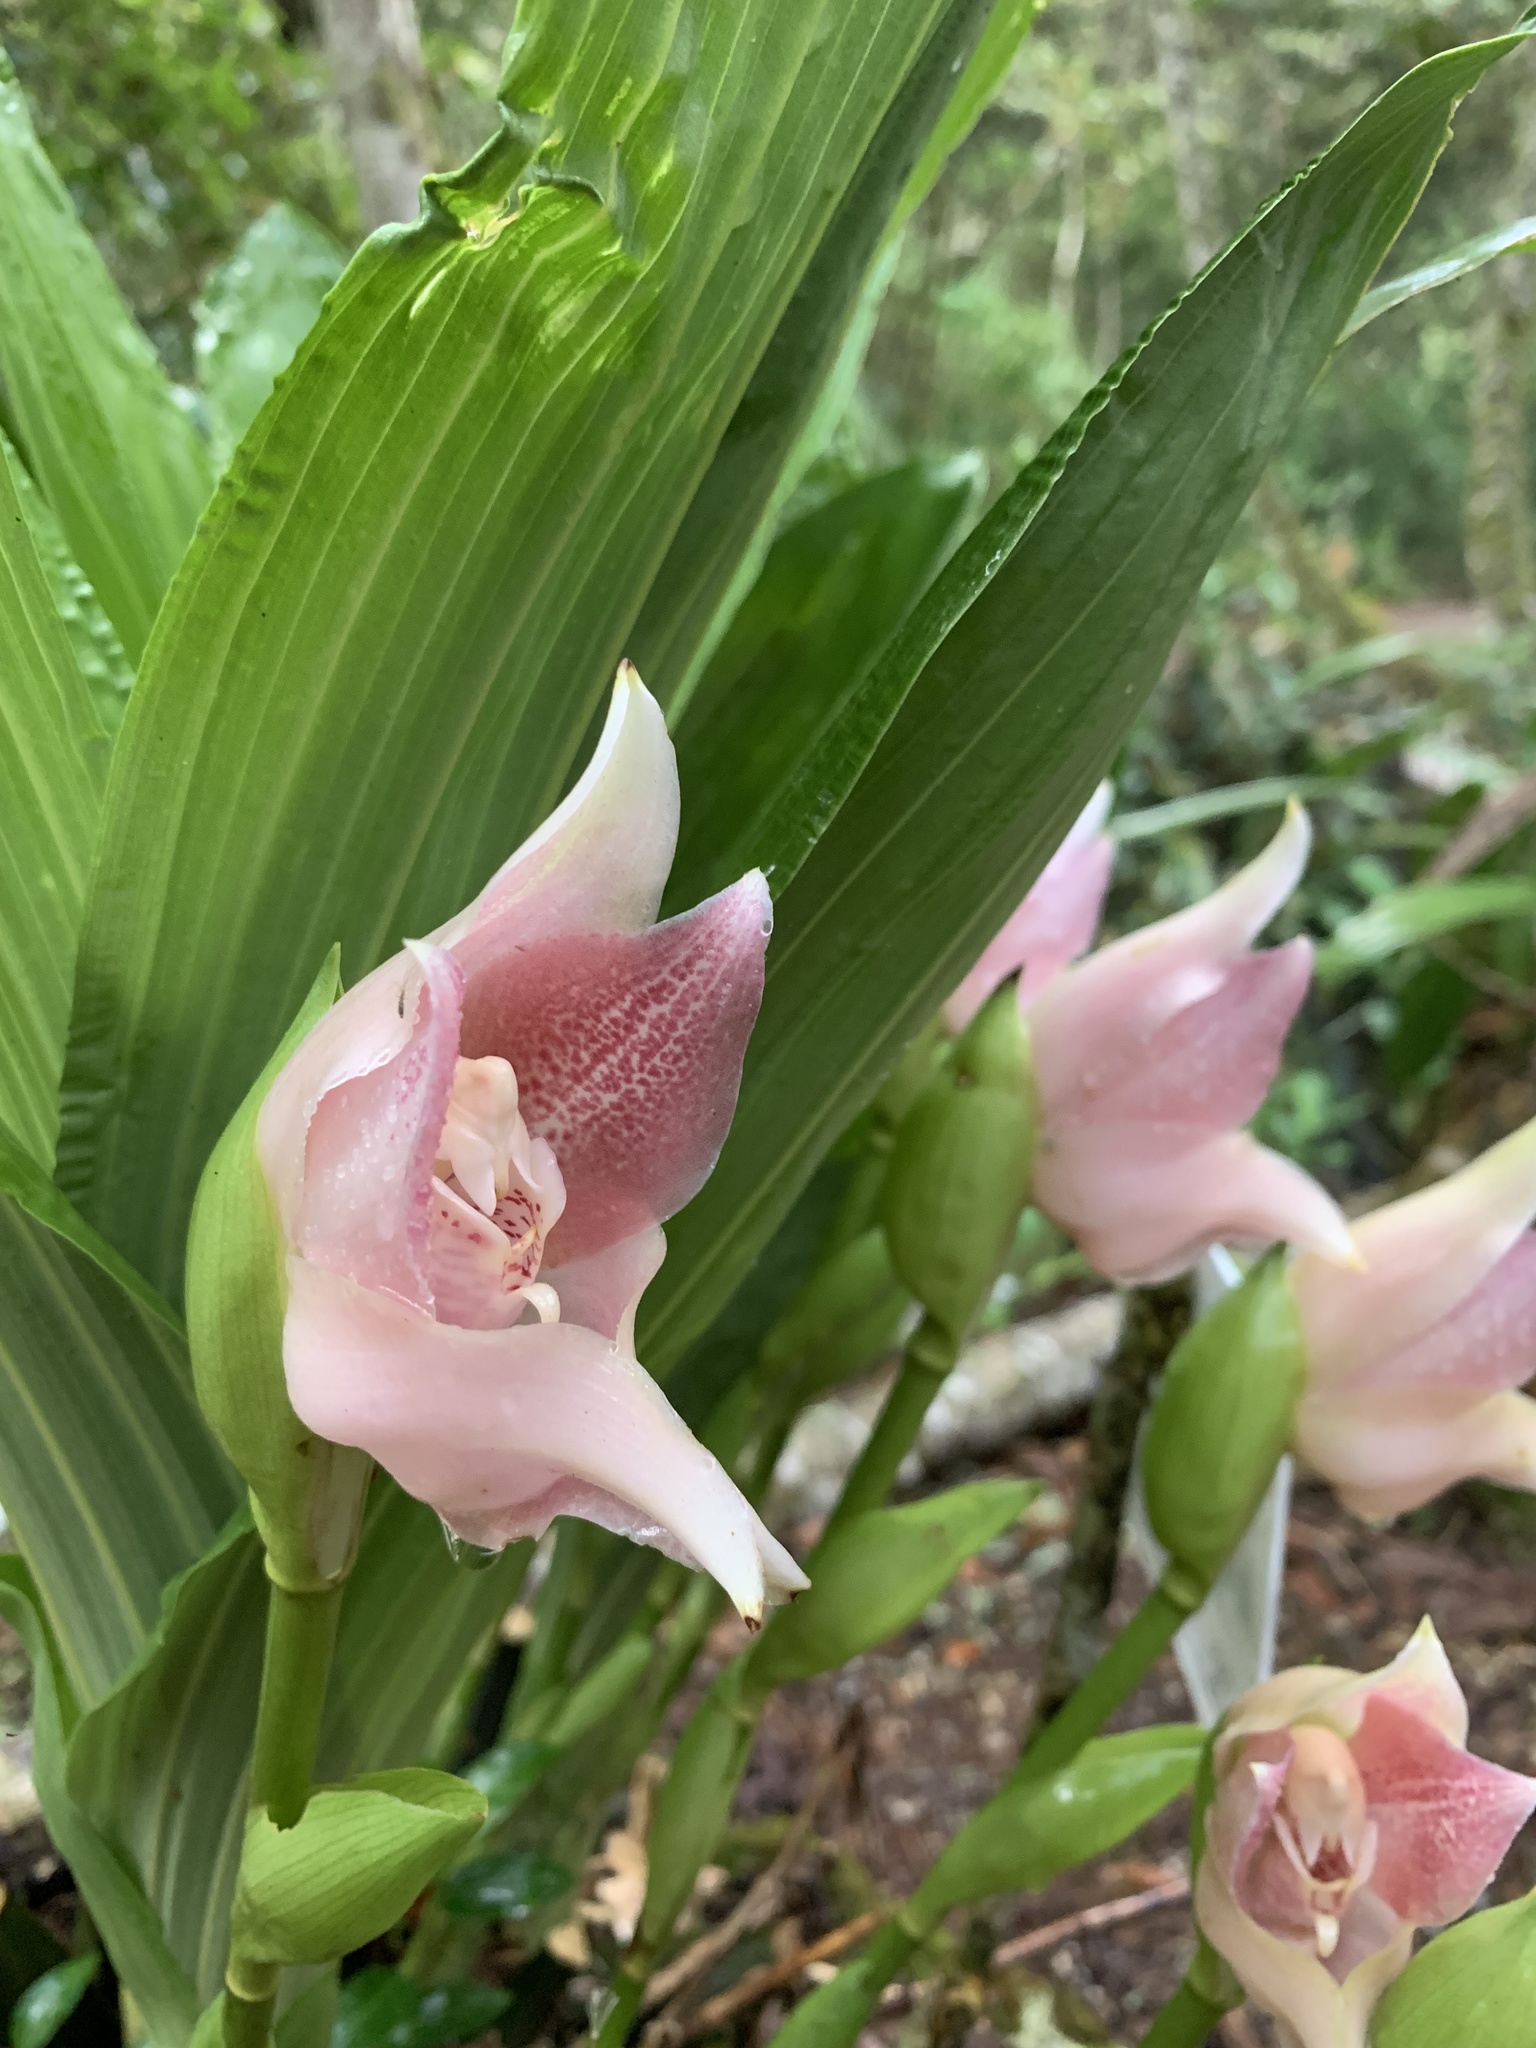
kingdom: Plantae
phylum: Tracheophyta
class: Liliopsida
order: Asparagales
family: Orchidaceae
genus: Anguloa
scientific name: Anguloa virginalis
